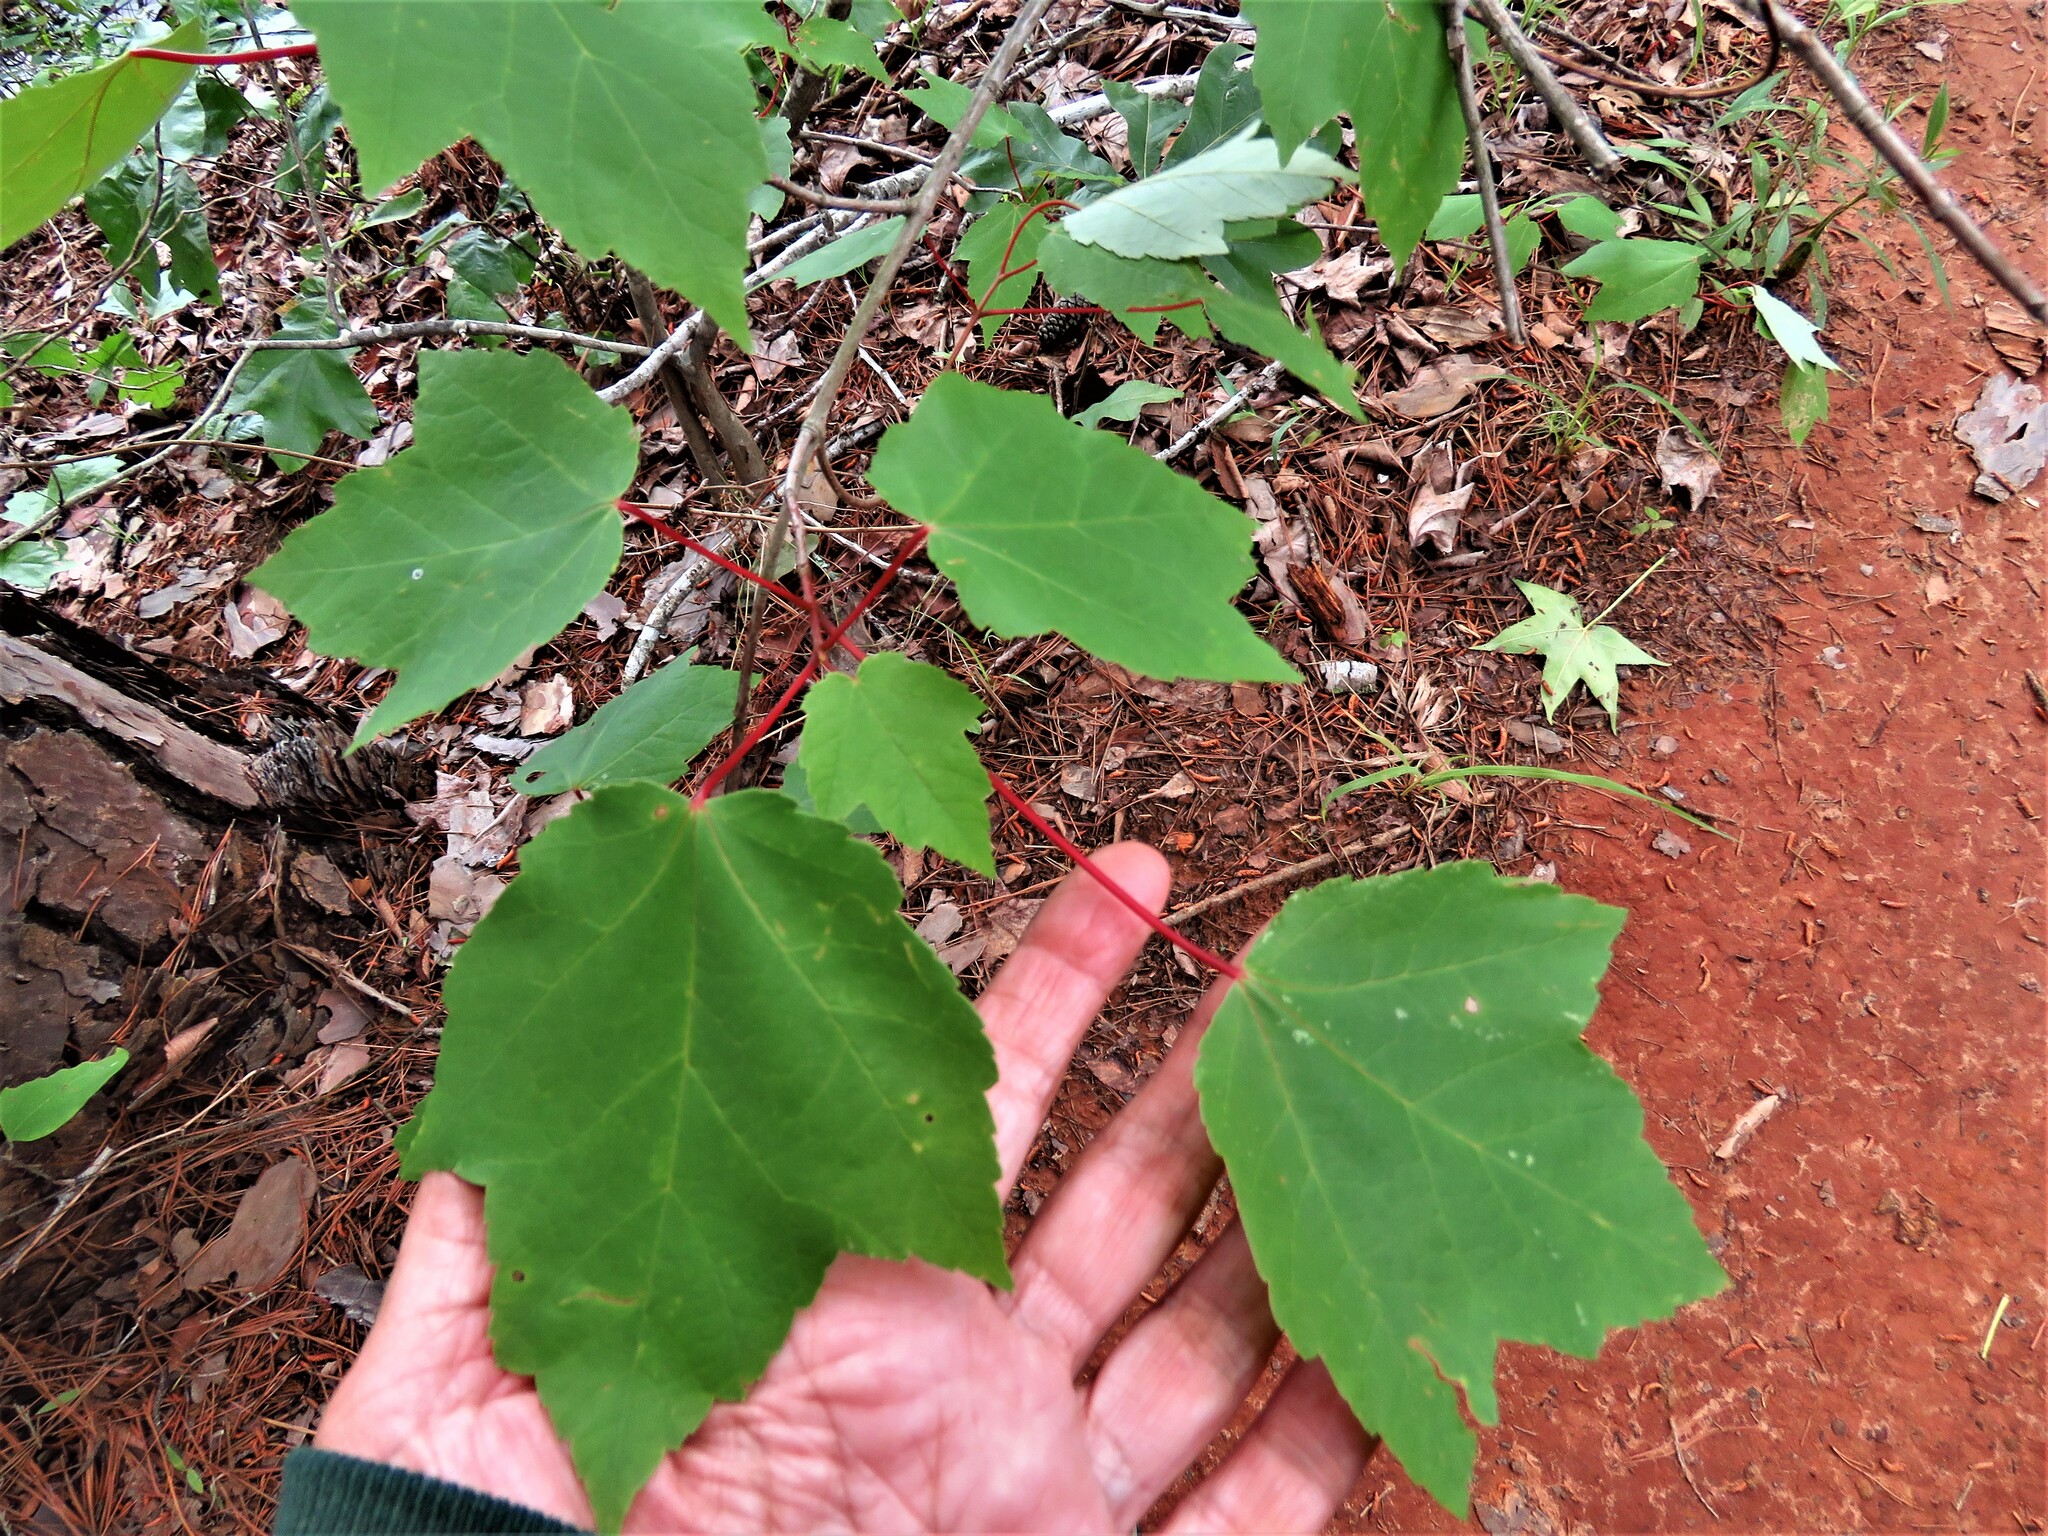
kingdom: Plantae
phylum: Tracheophyta
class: Magnoliopsida
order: Sapindales
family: Sapindaceae
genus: Acer
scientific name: Acer rubrum
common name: Red maple
